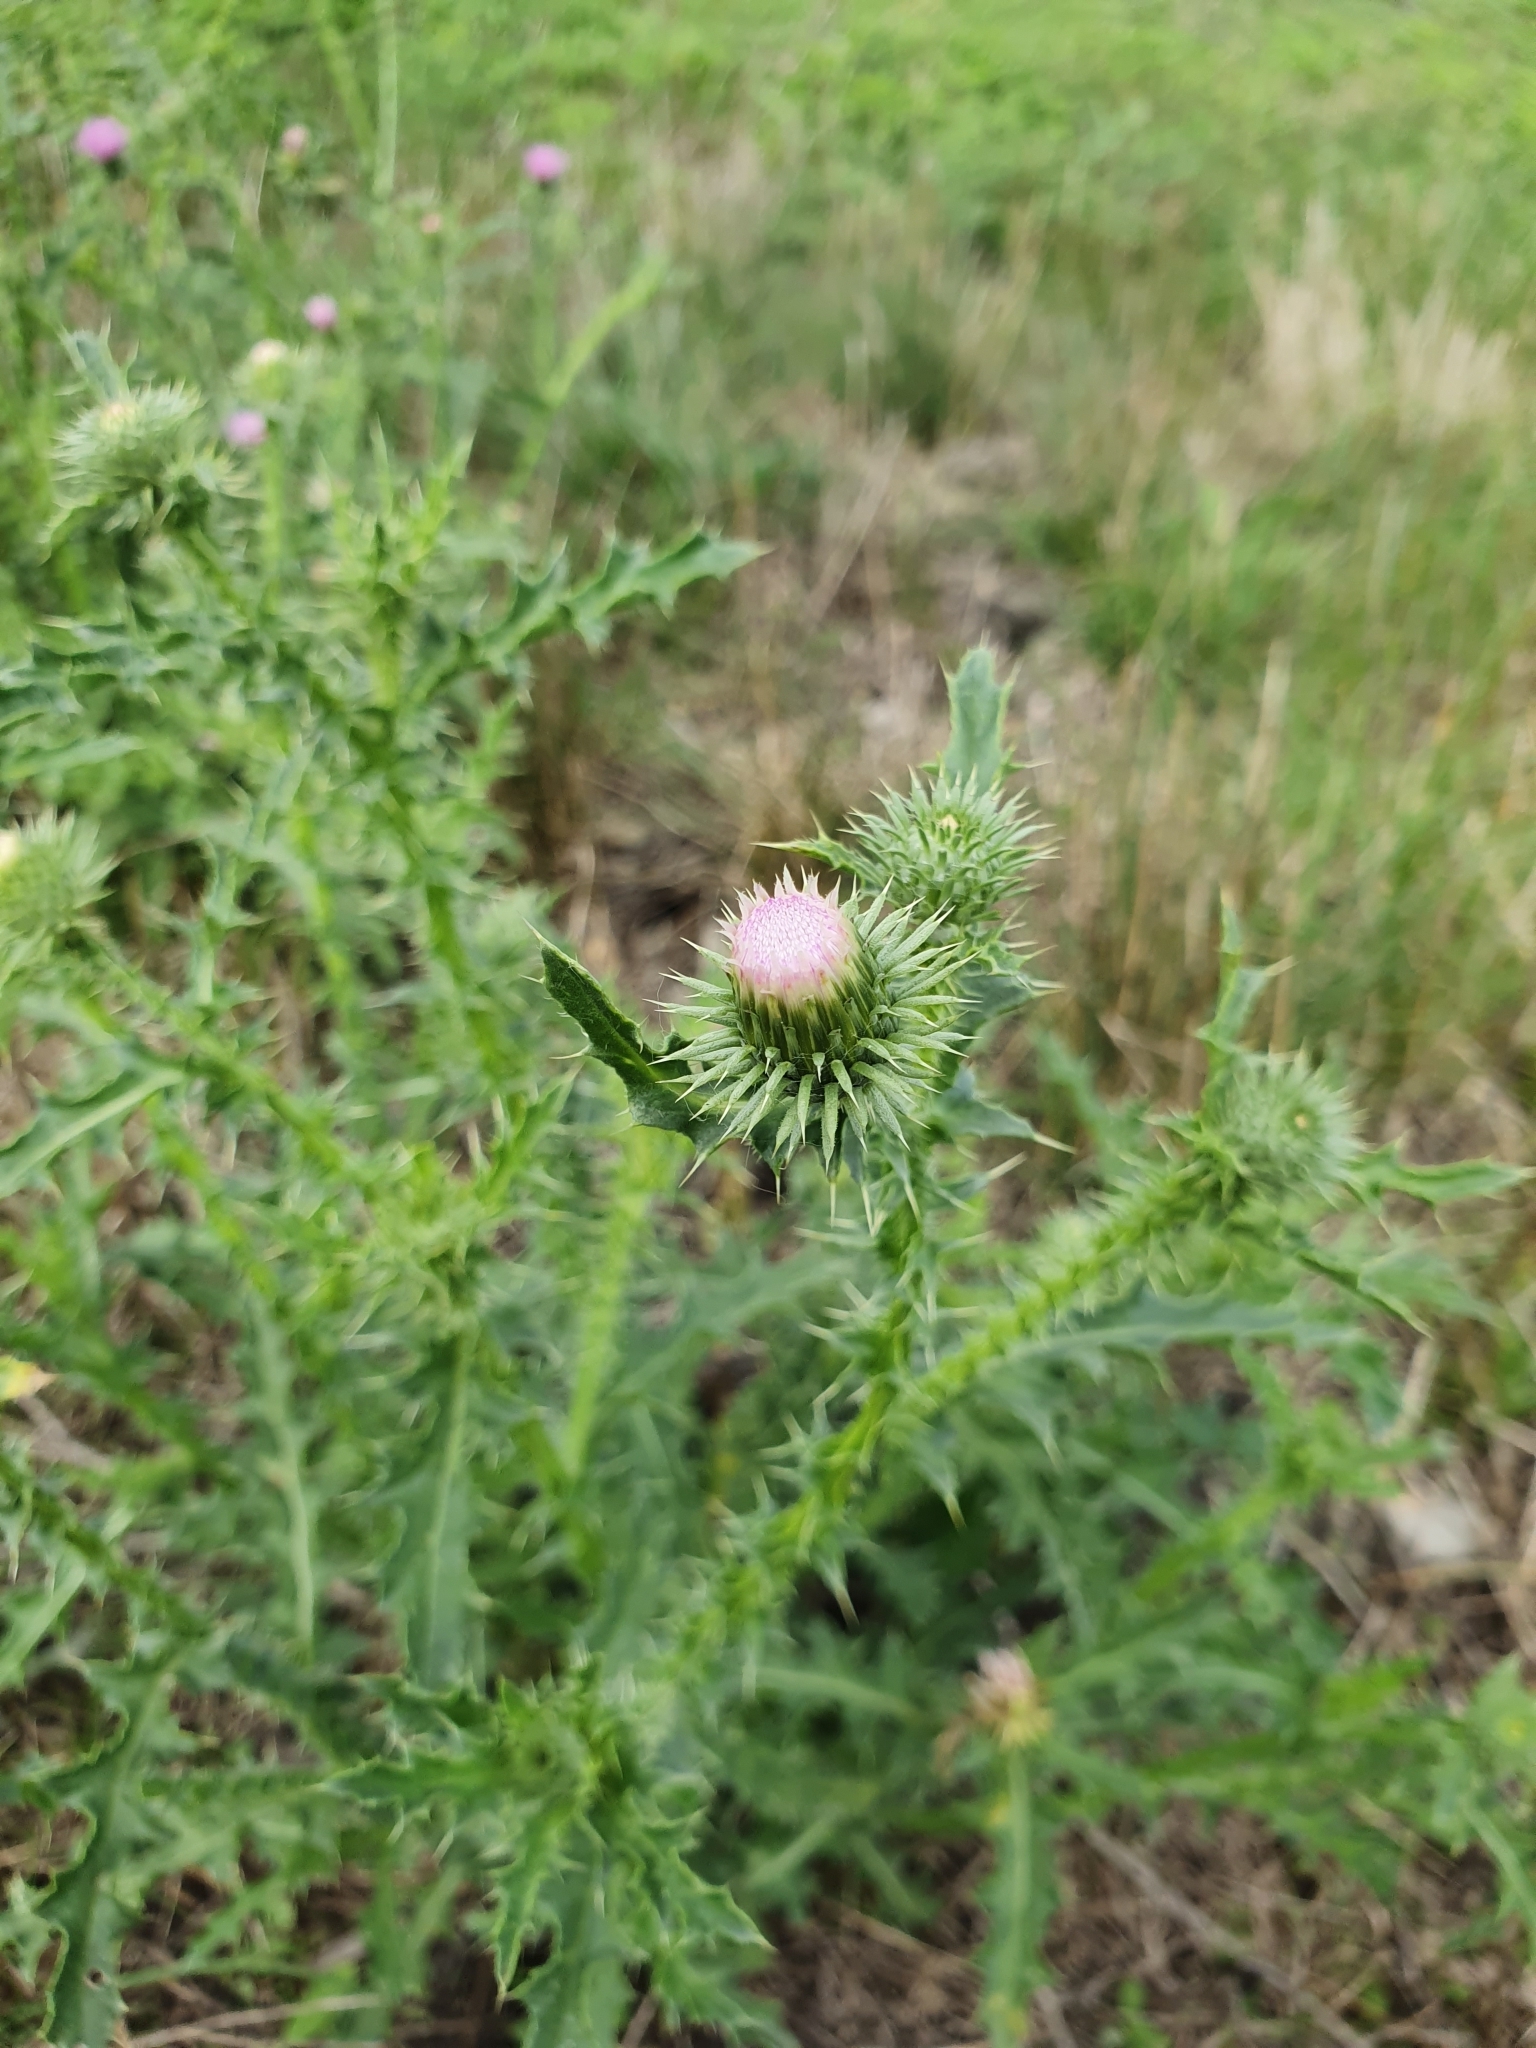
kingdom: Plantae
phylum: Tracheophyta
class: Magnoliopsida
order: Asterales
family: Asteraceae
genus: Carduus
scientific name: Carduus acanthoides
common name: Plumeless thistle
